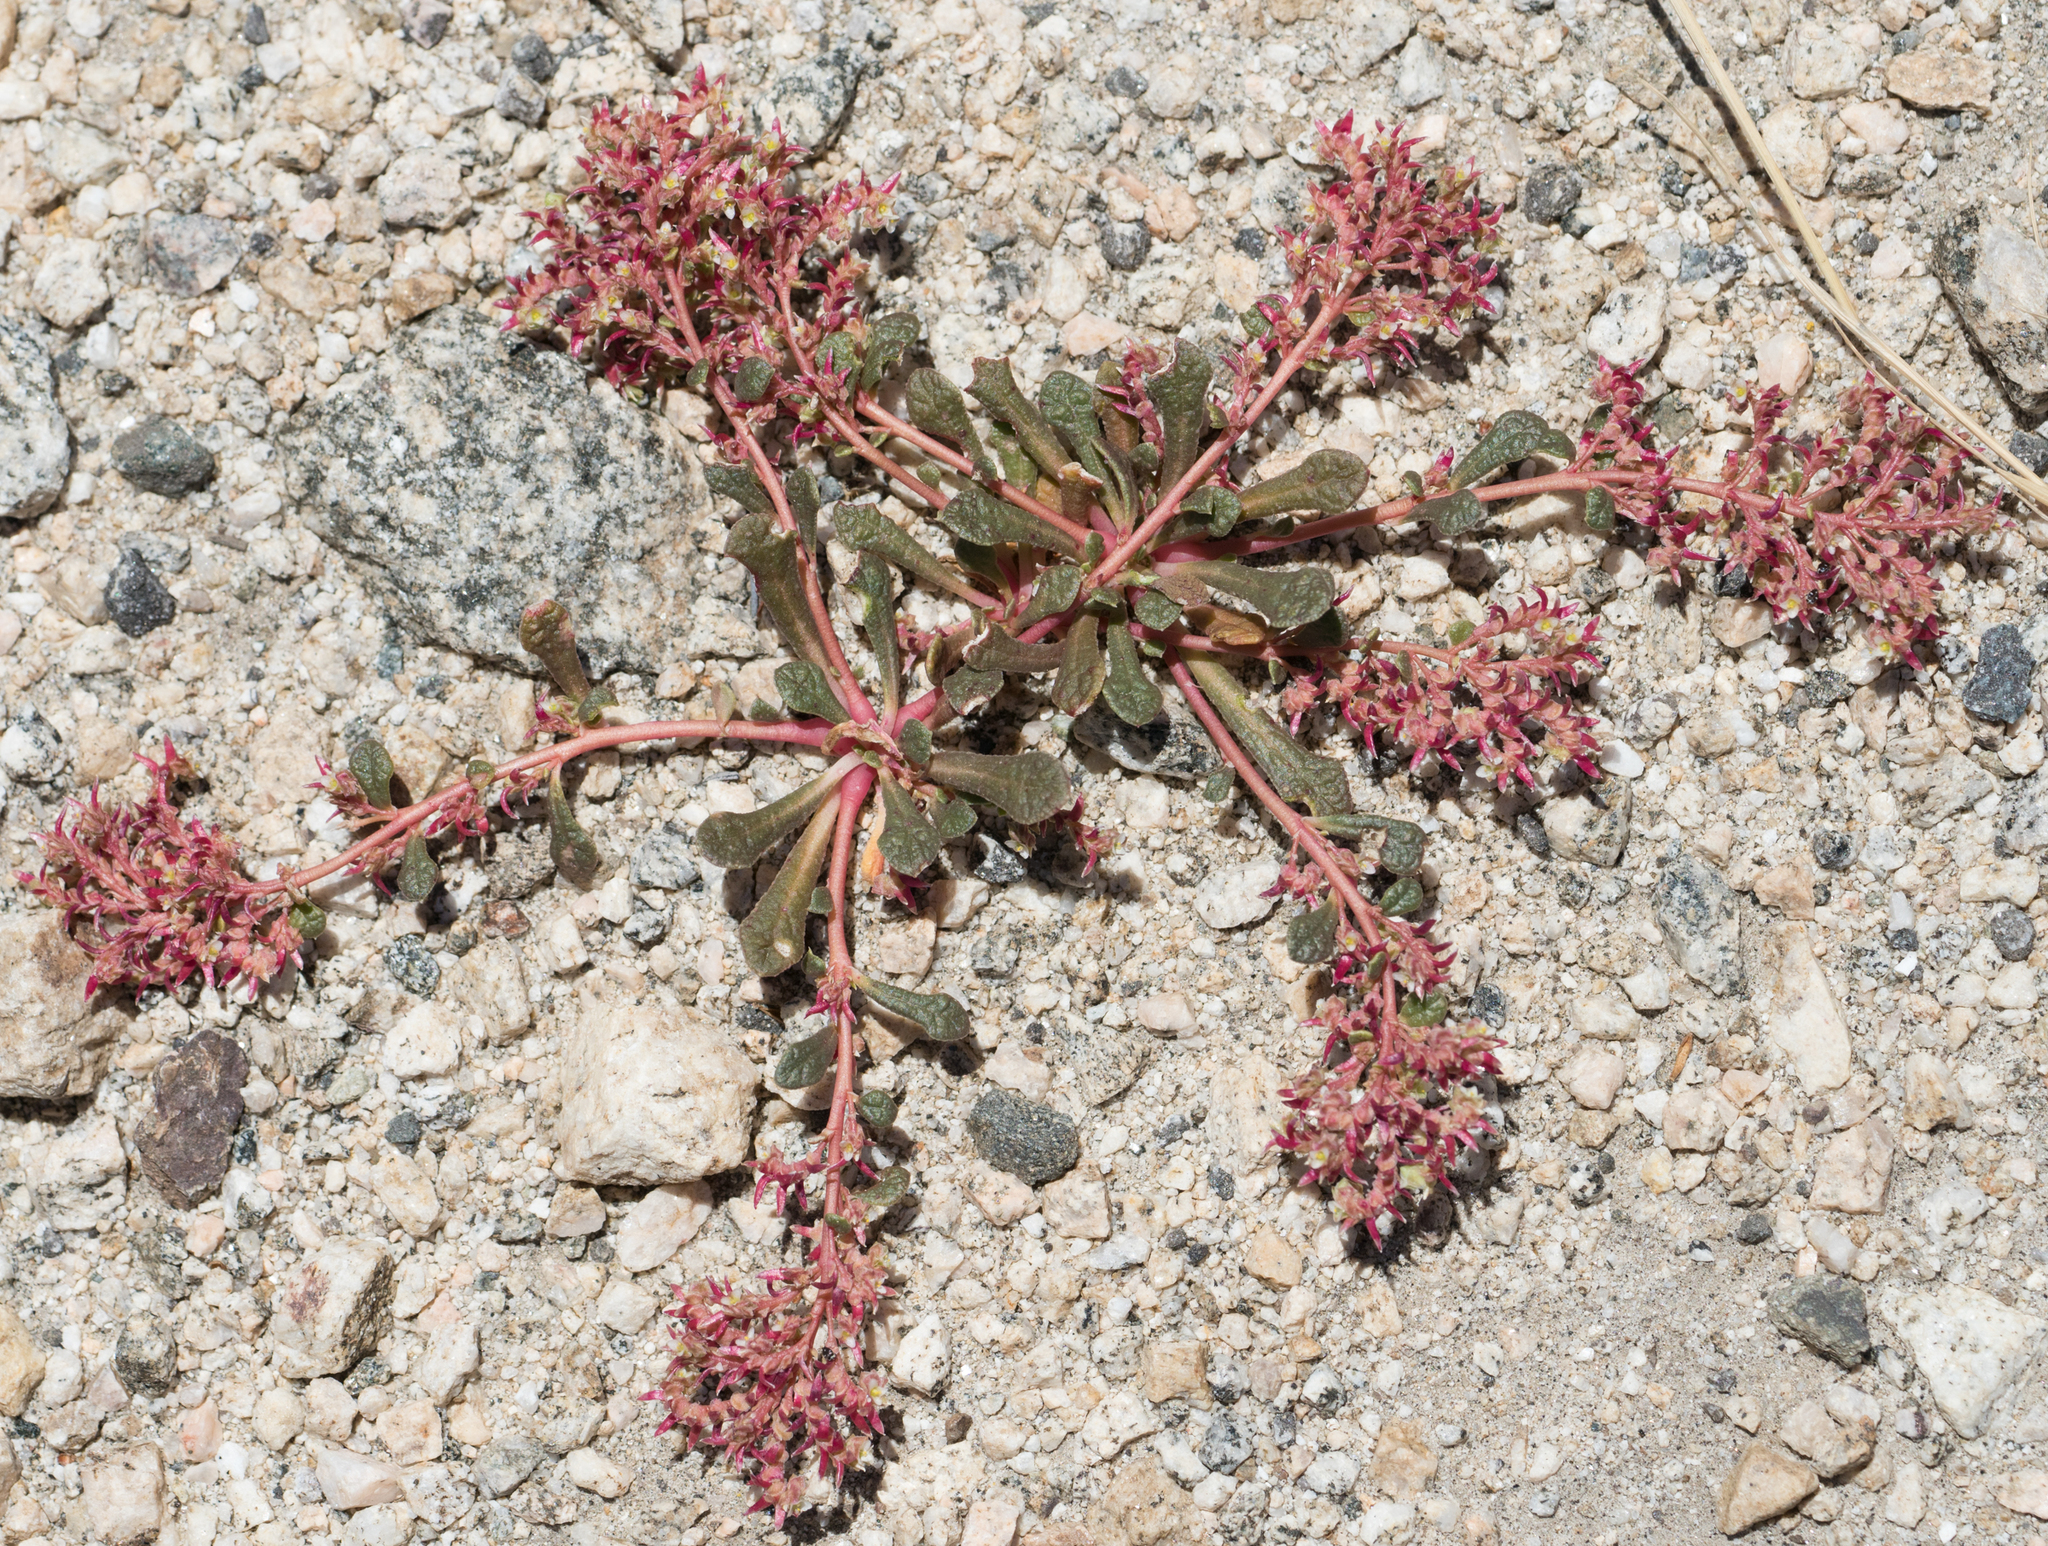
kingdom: Plantae
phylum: Tracheophyta
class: Magnoliopsida
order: Caryophyllales
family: Montiaceae
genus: Calyptridium
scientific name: Calyptridium monandrum
